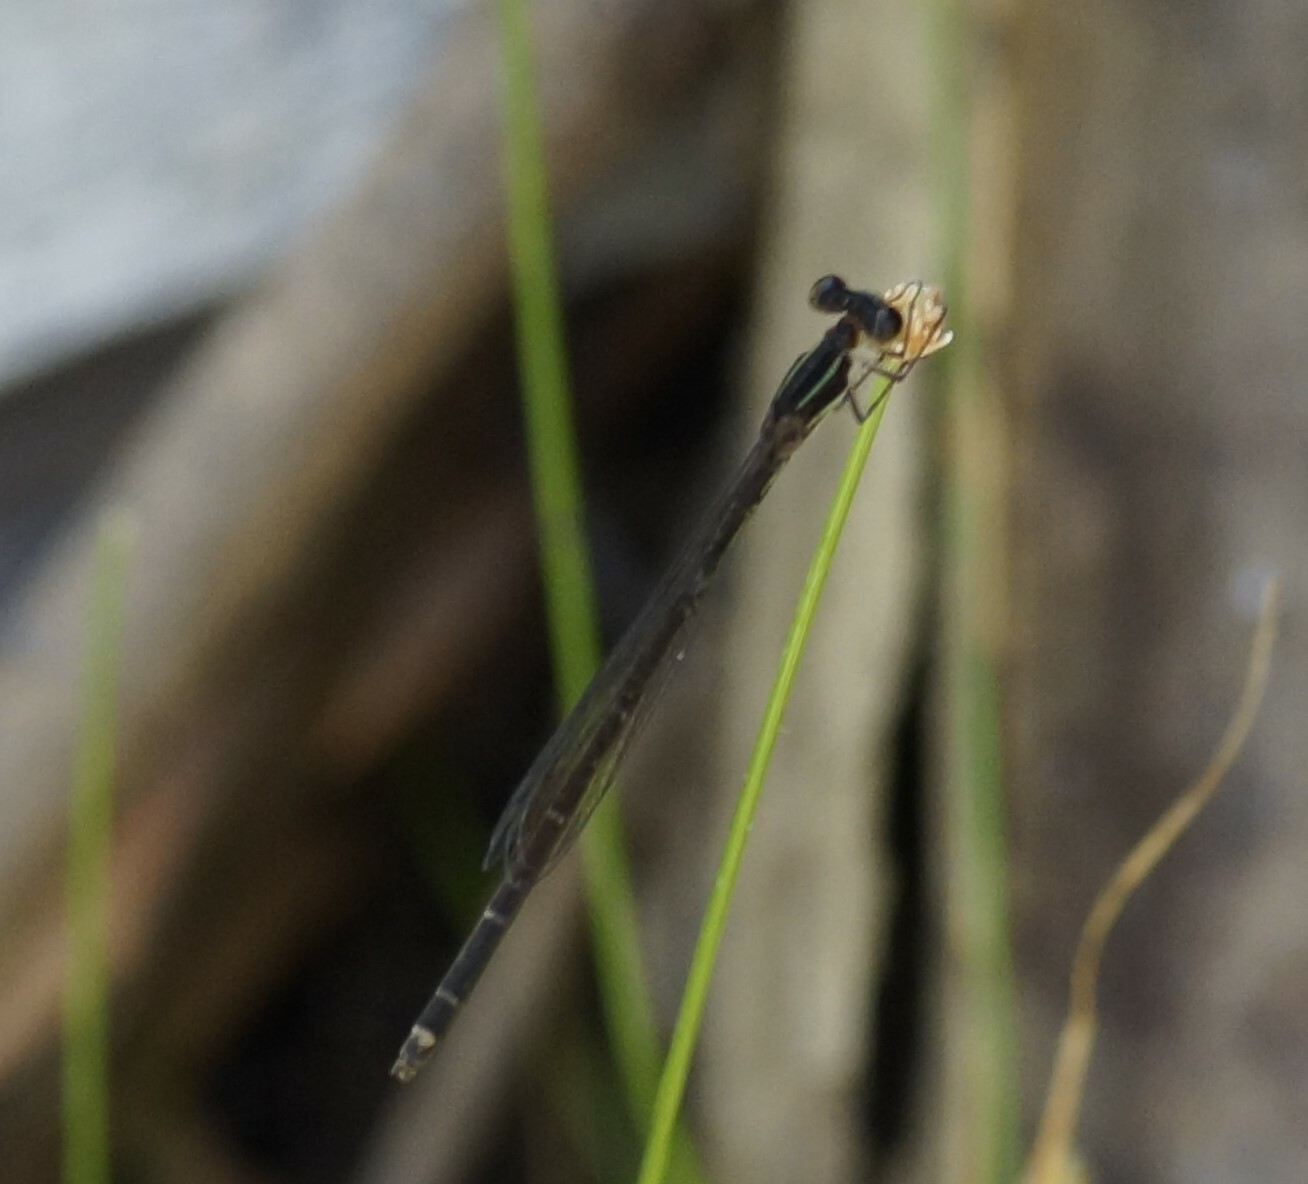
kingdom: Animalia
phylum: Arthropoda
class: Insecta
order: Odonata
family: Coenagrionidae
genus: Argiocnemis
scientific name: Argiocnemis rubescens
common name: Red-tipped shadefly
